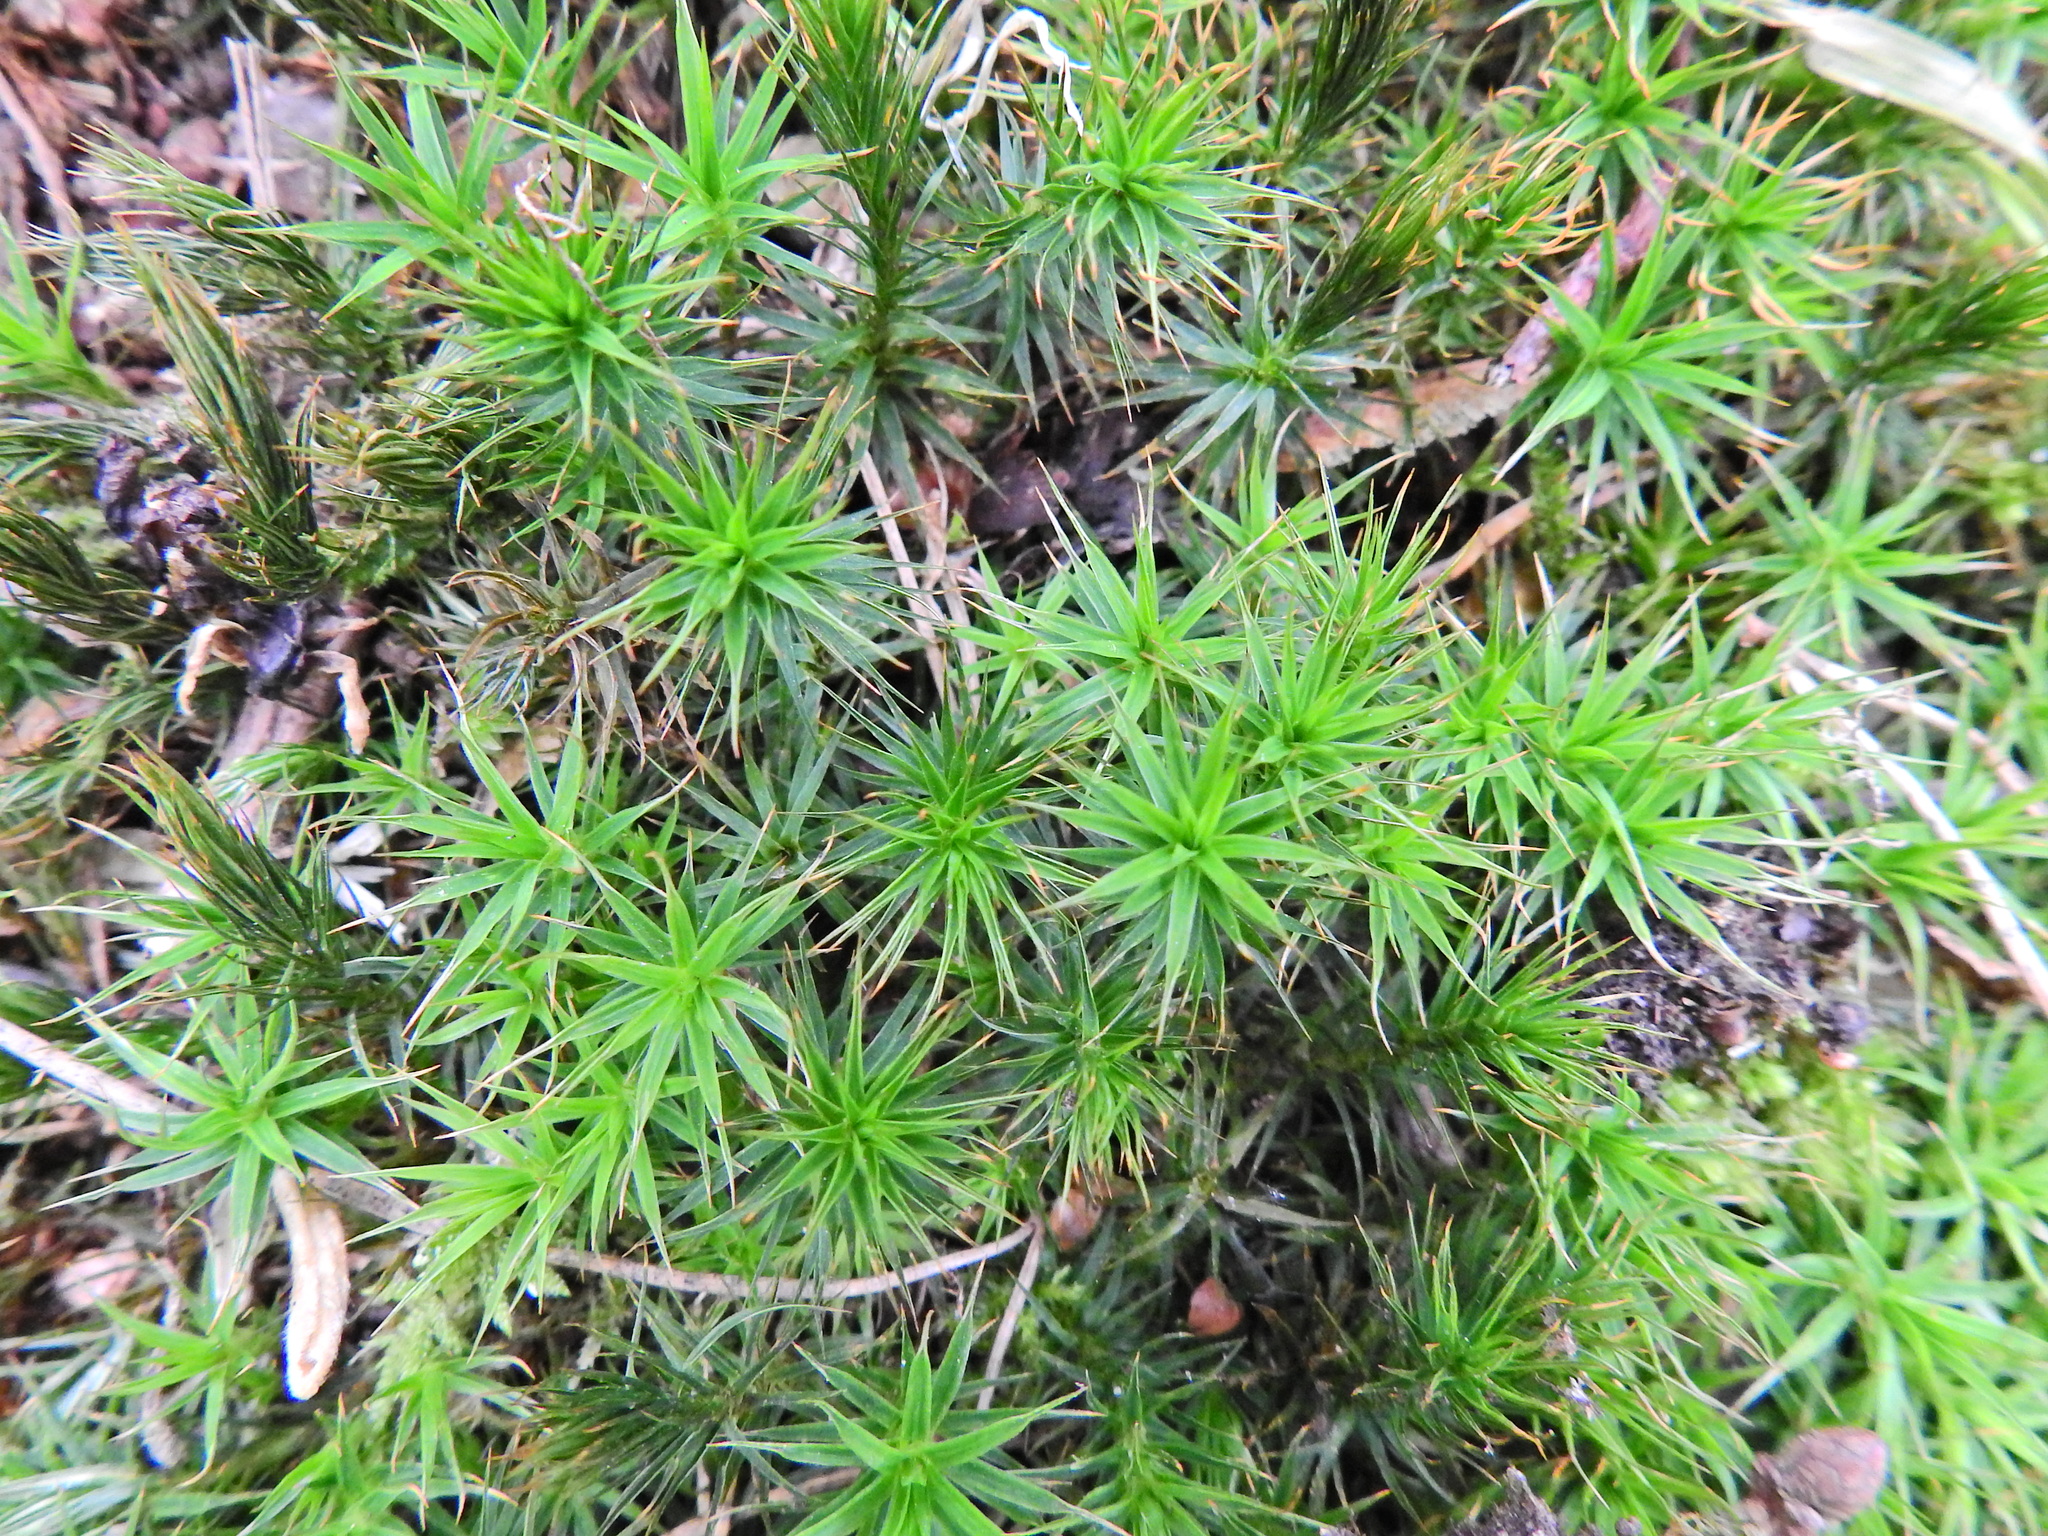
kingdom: Plantae
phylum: Bryophyta
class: Polytrichopsida
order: Polytrichales
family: Polytrichaceae
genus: Polytrichum
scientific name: Polytrichum formosum
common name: Bank haircap moss
